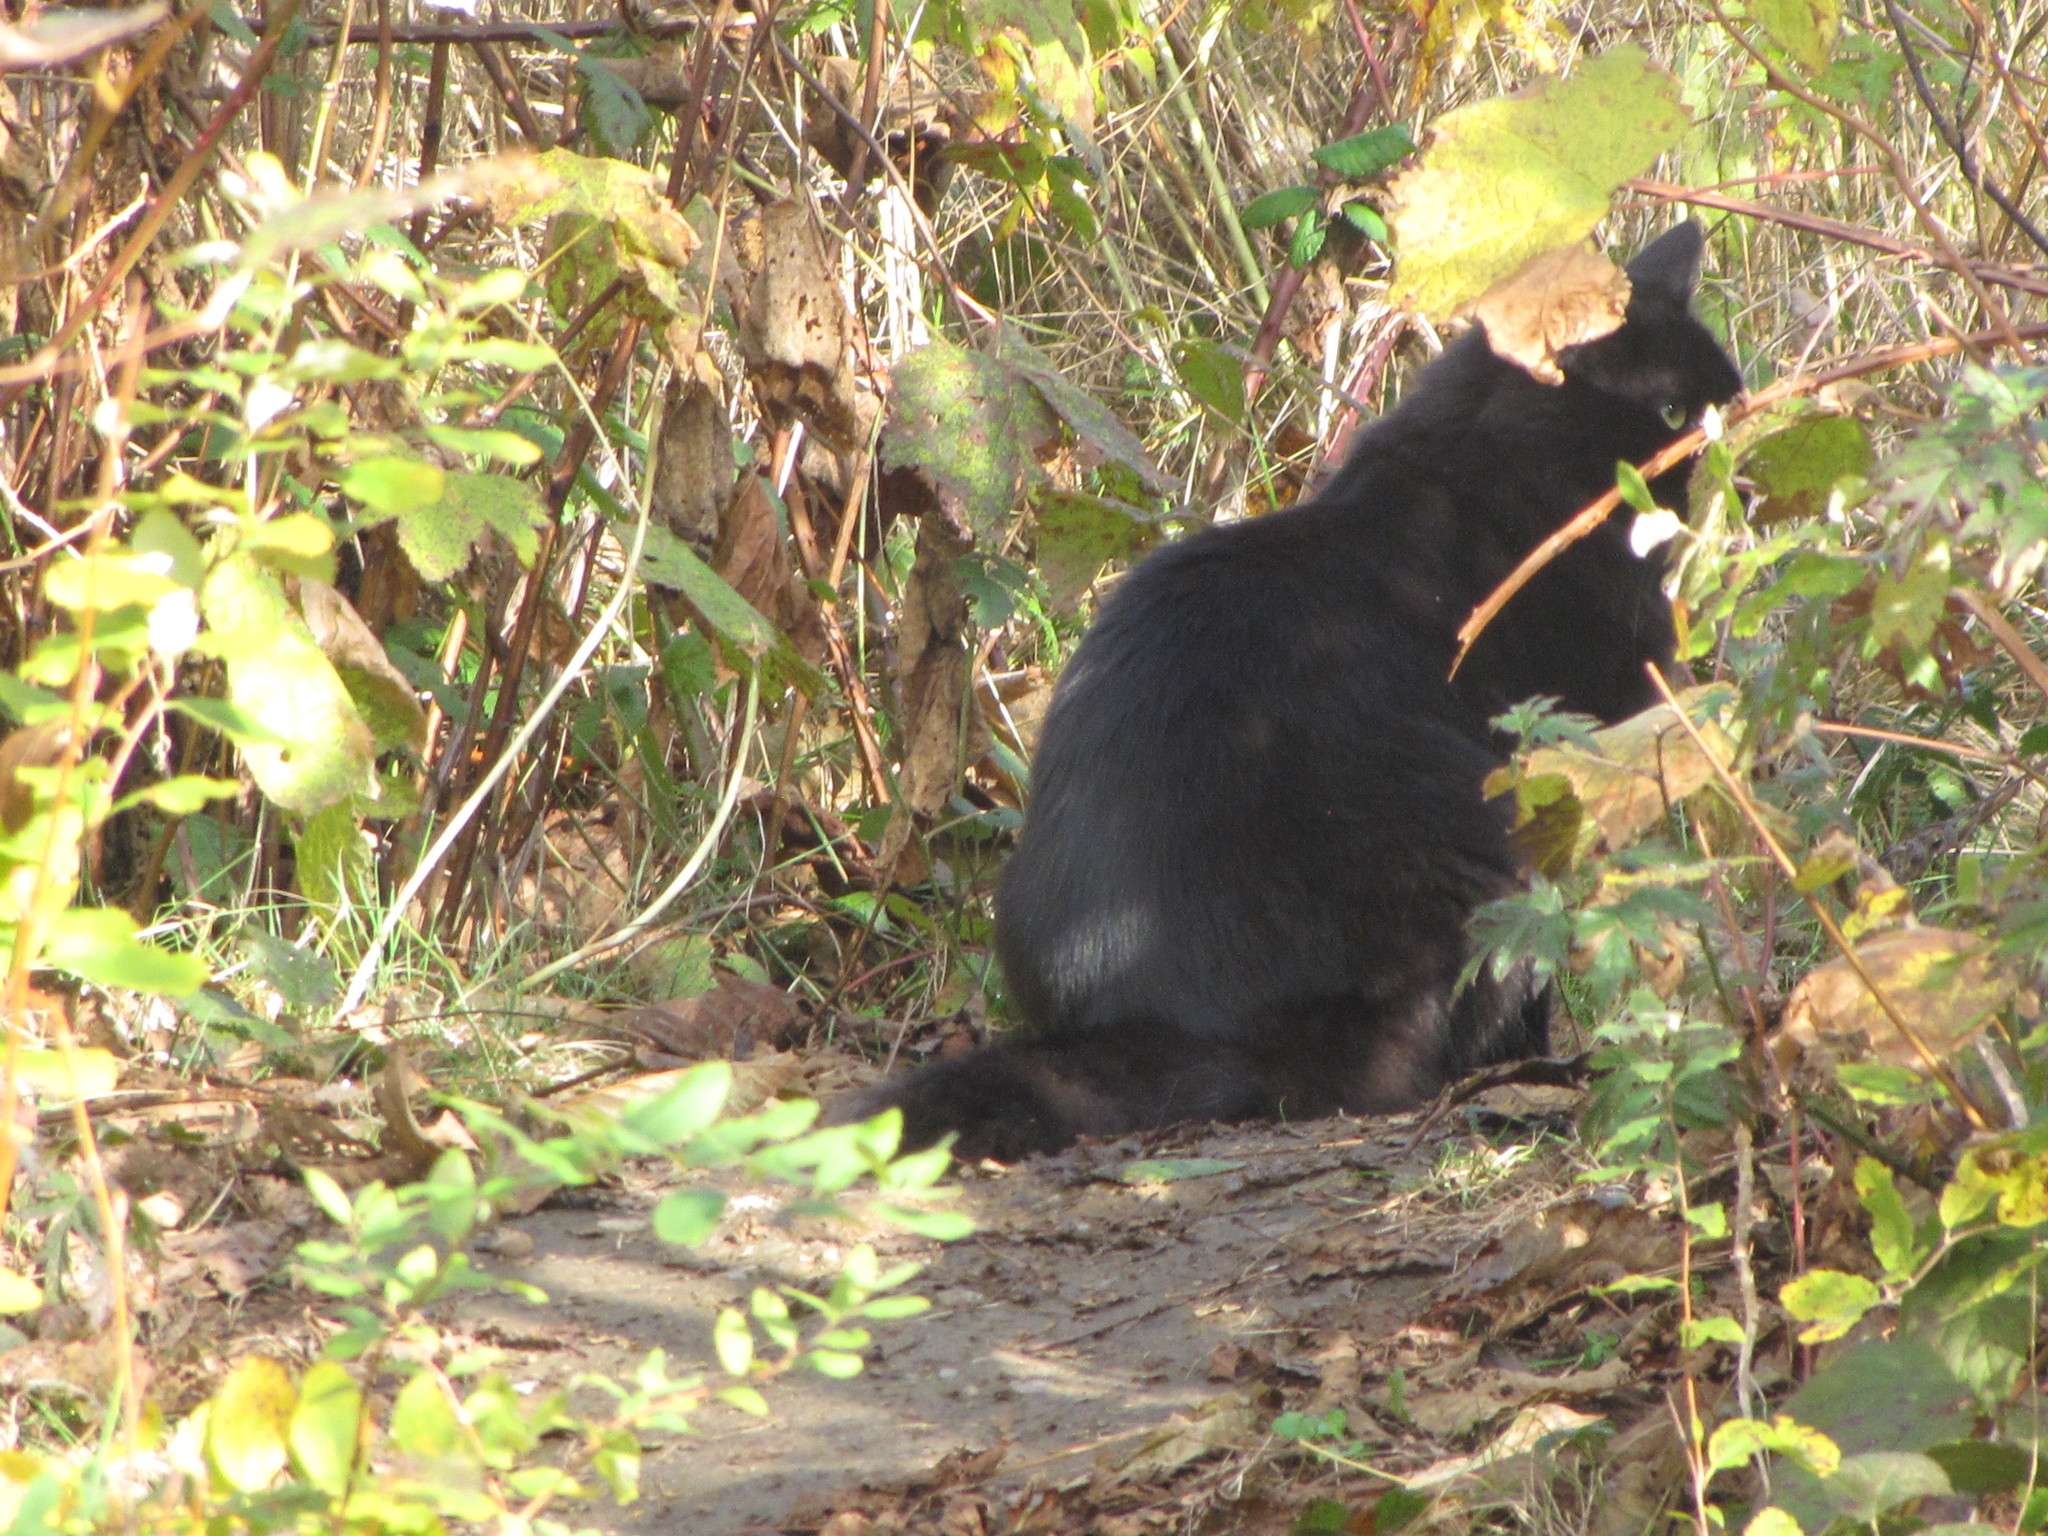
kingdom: Animalia
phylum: Chordata
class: Mammalia
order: Carnivora
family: Felidae
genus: Felis
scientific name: Felis catus
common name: Domestic cat
